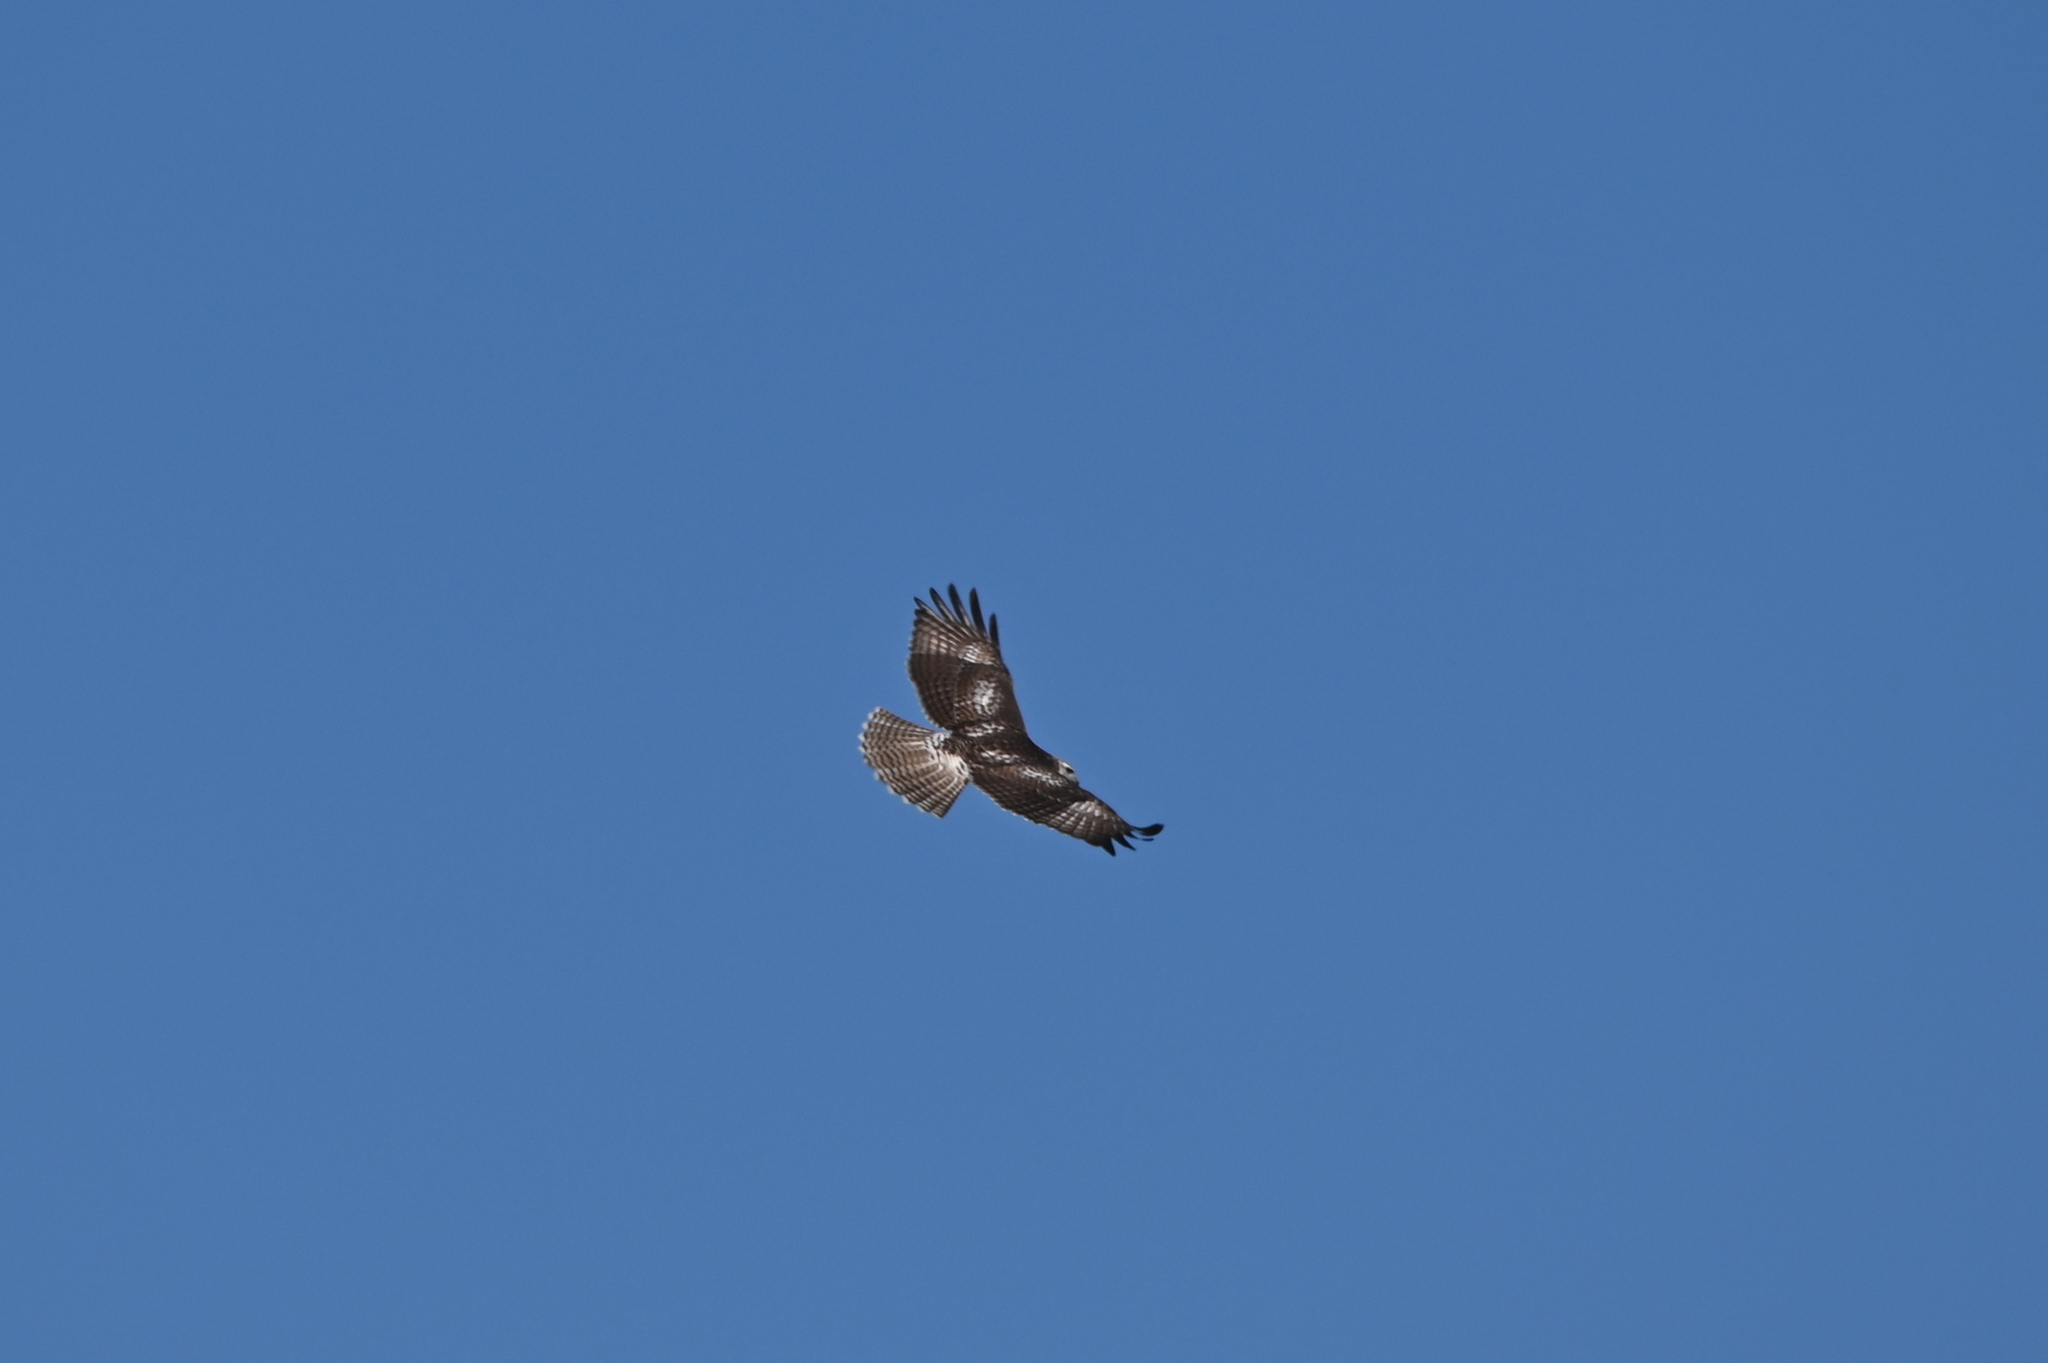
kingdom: Animalia
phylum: Chordata
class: Aves
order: Accipitriformes
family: Accipitridae
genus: Buteo
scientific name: Buteo jamaicensis
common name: Red-tailed hawk
